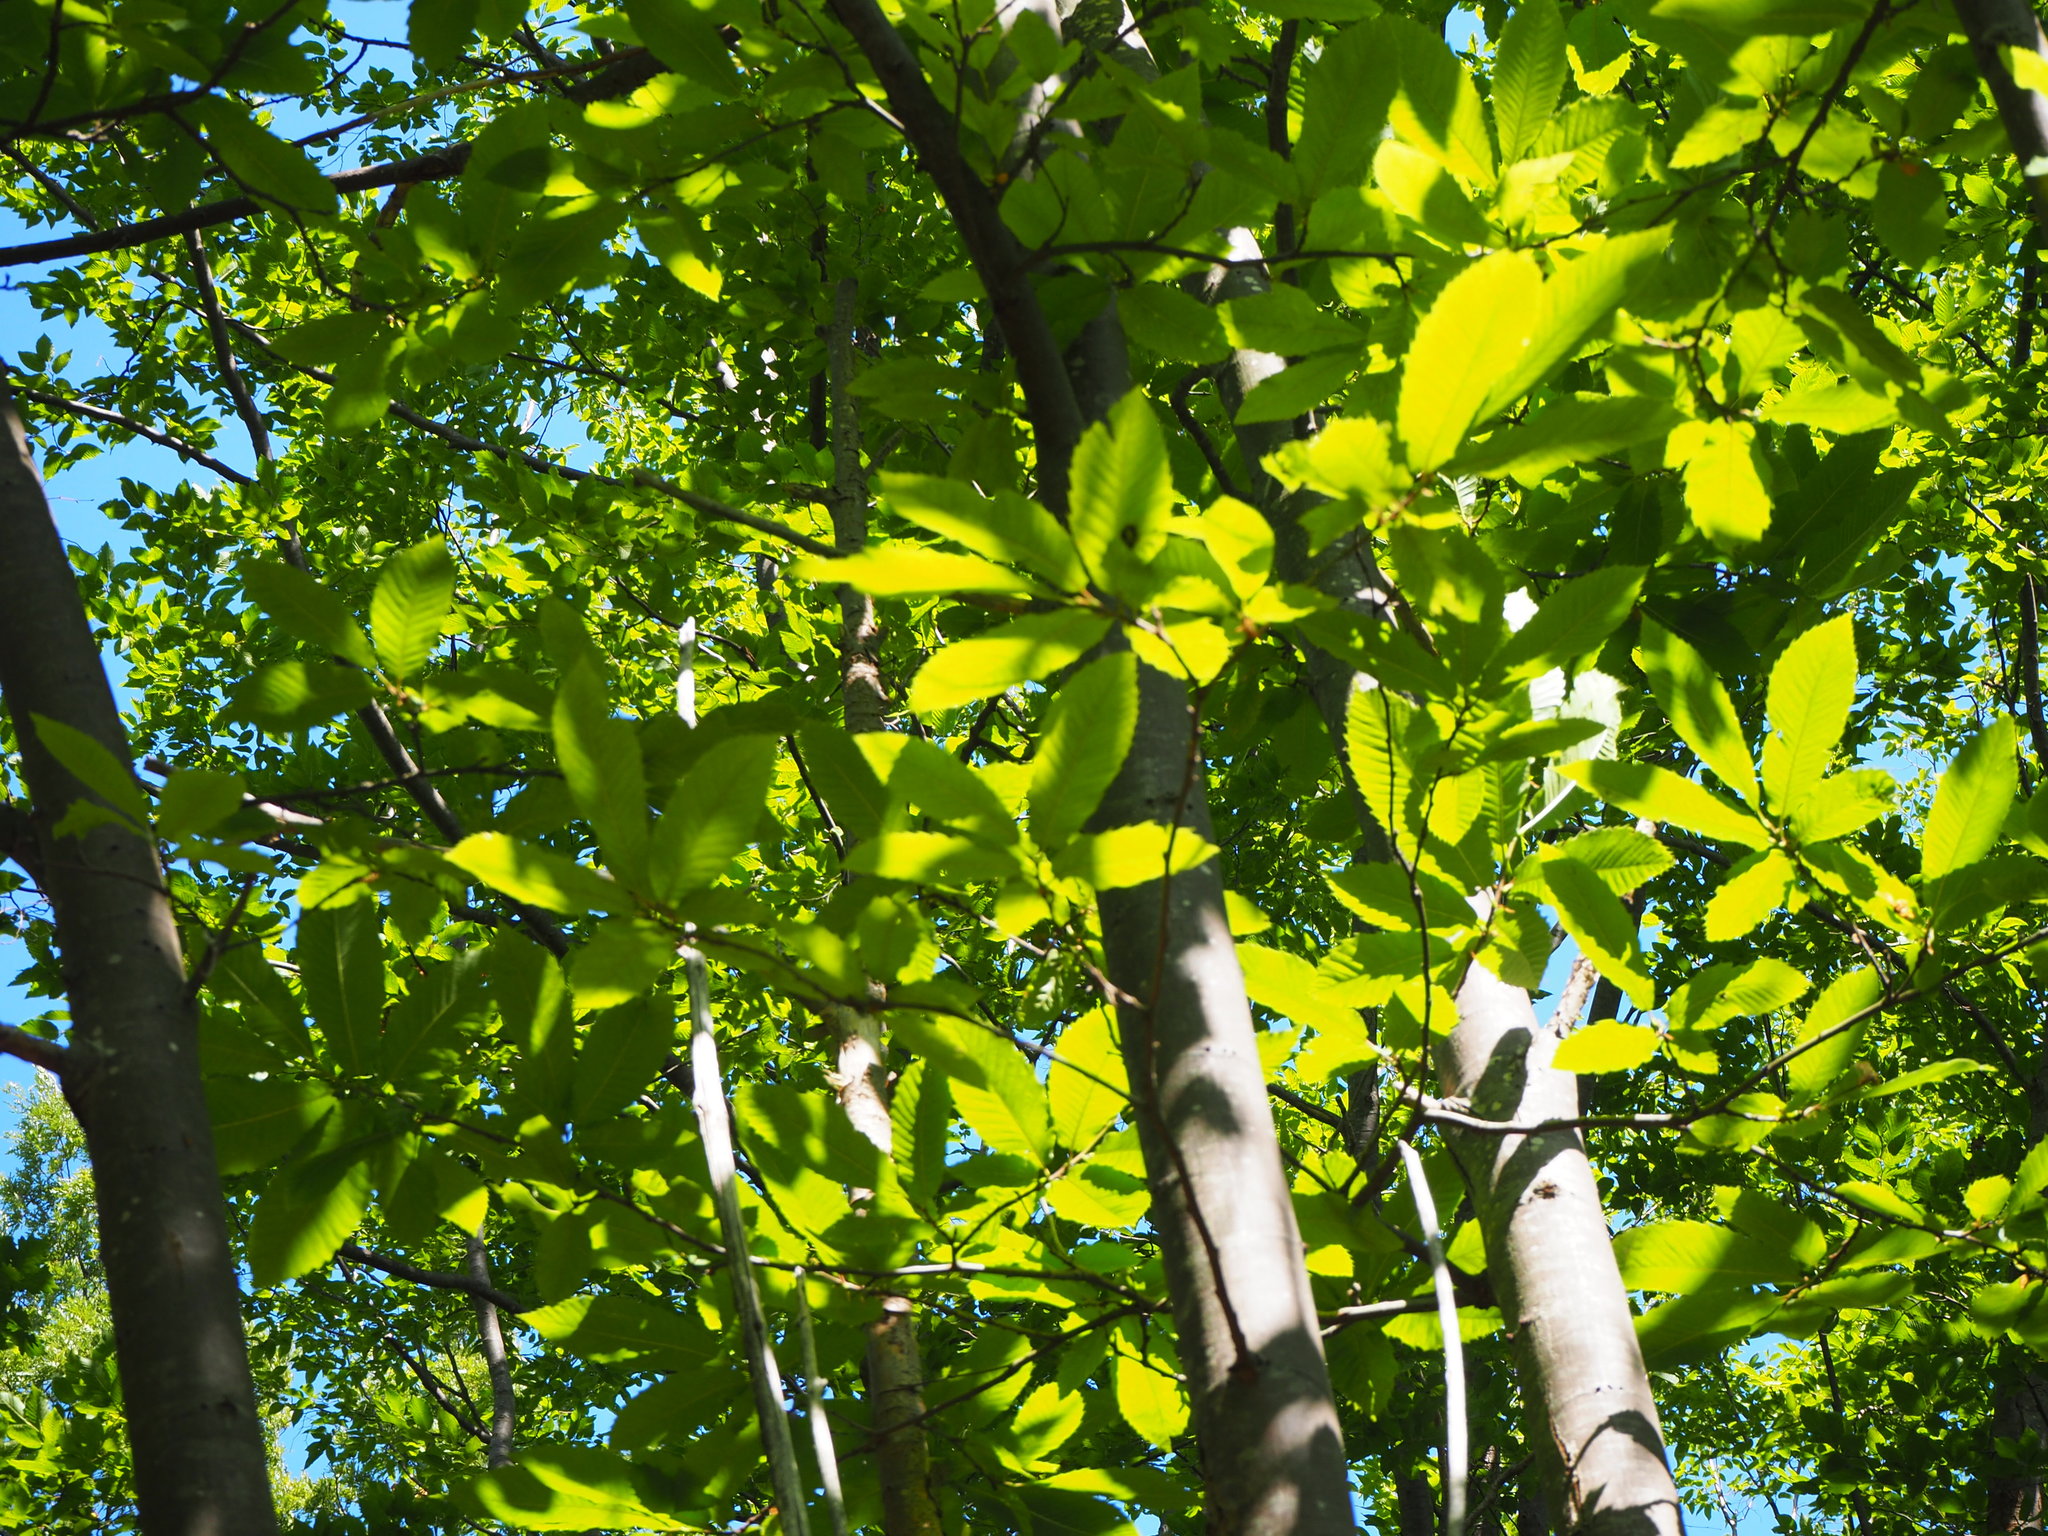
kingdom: Plantae
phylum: Tracheophyta
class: Magnoliopsida
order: Fagales
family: Fagaceae
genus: Castanea
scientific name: Castanea sativa
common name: Sweet chestnut
